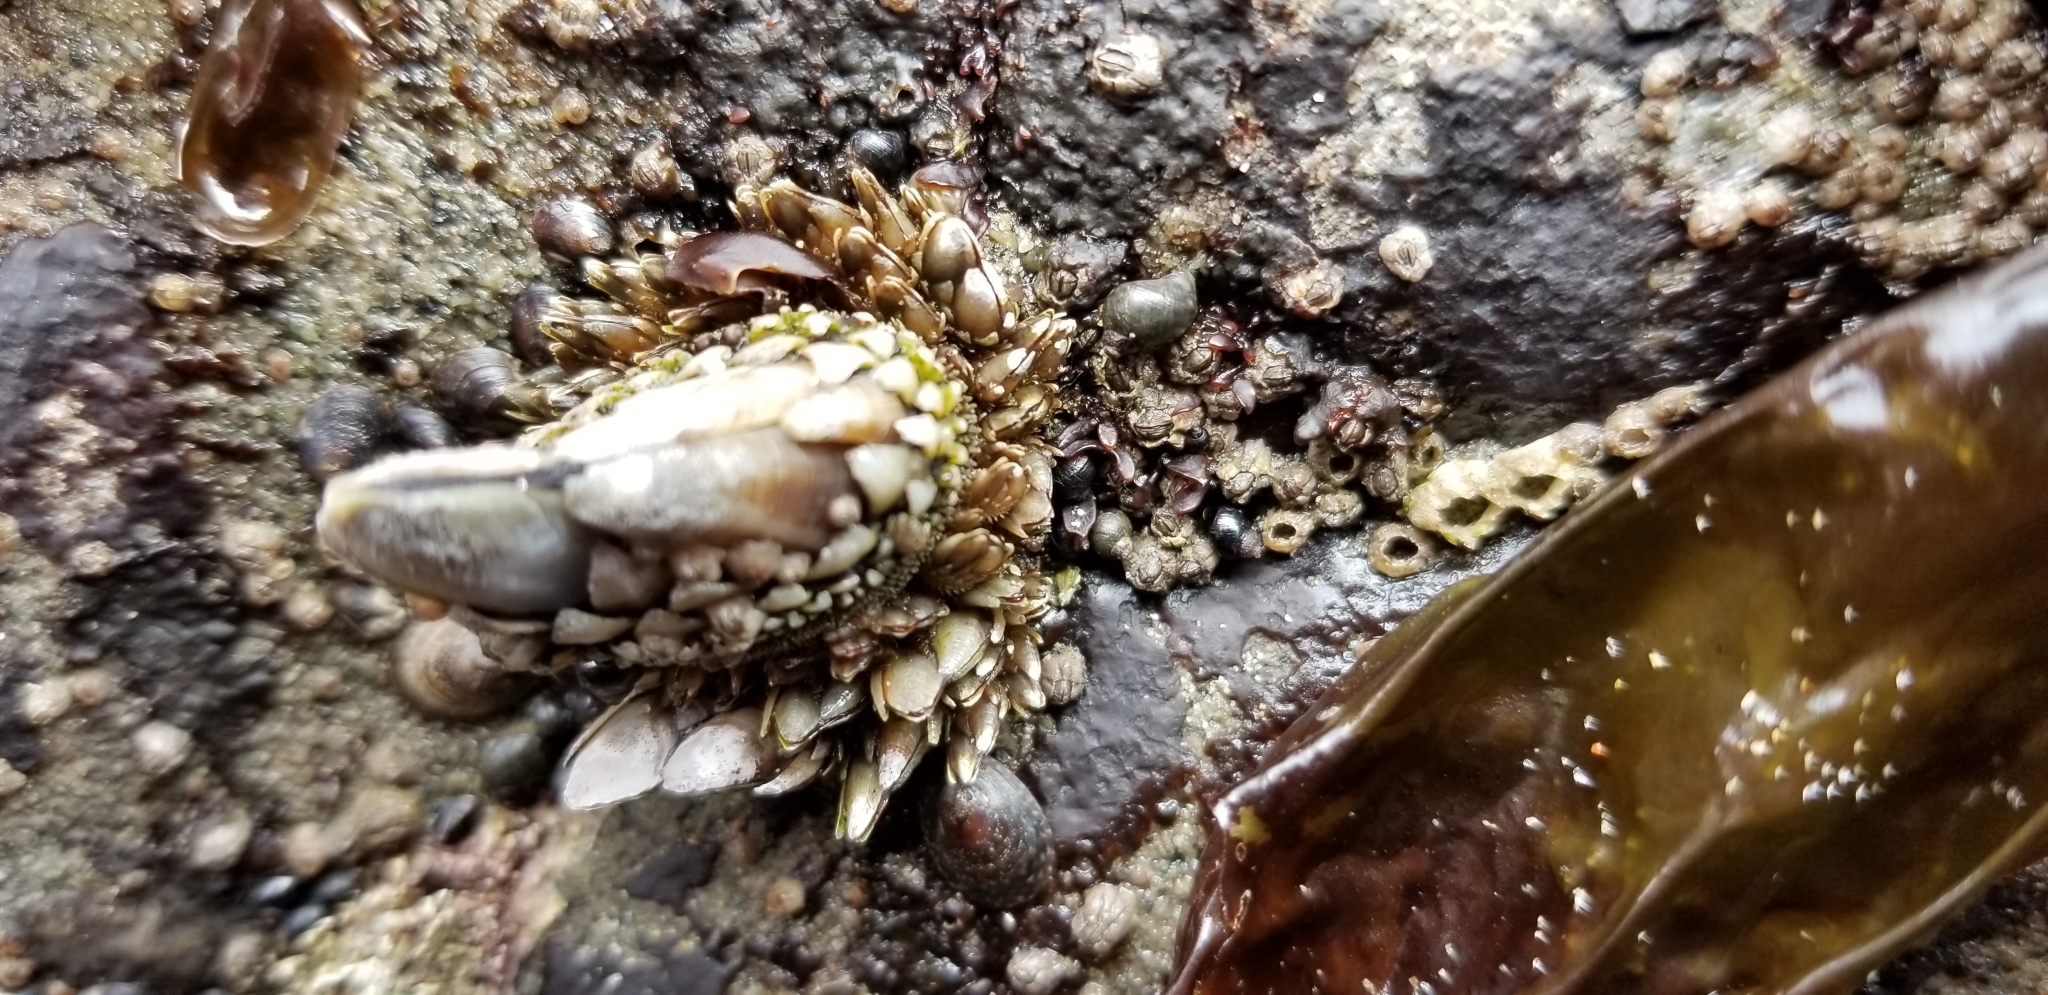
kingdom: Animalia
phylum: Arthropoda
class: Maxillopoda
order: Pedunculata
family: Pollicipedidae
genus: Pollicipes
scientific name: Pollicipes polymerus
